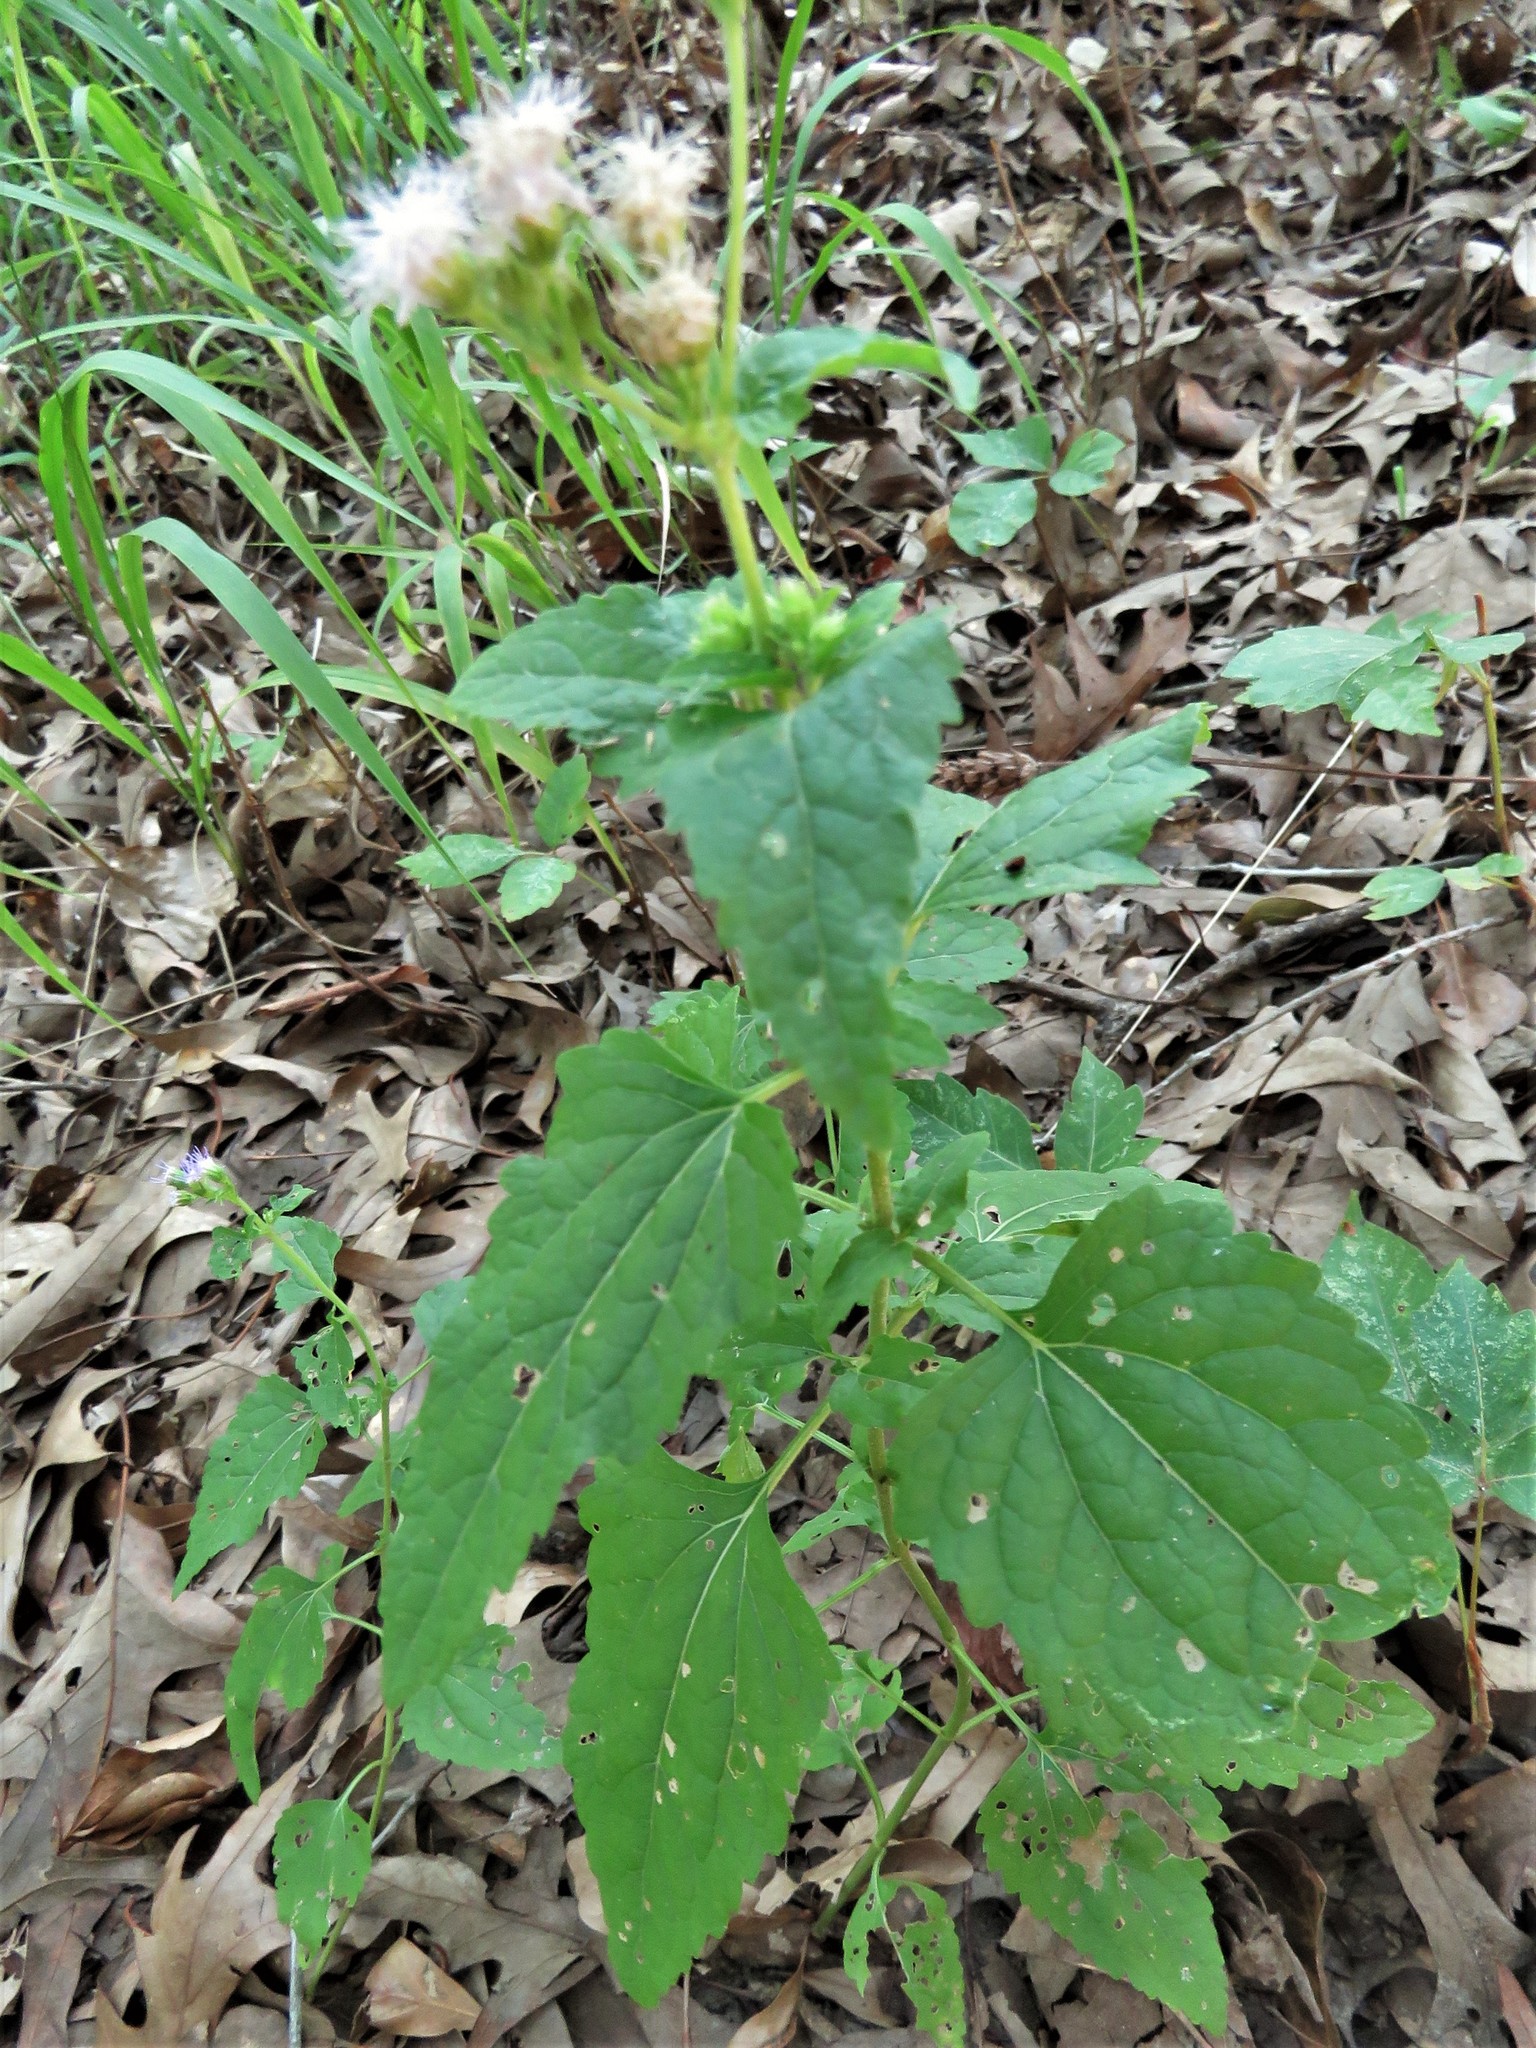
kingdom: Plantae
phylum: Tracheophyta
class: Magnoliopsida
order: Asterales
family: Asteraceae
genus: Conoclinium
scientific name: Conoclinium coelestinum
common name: Blue mistflower
